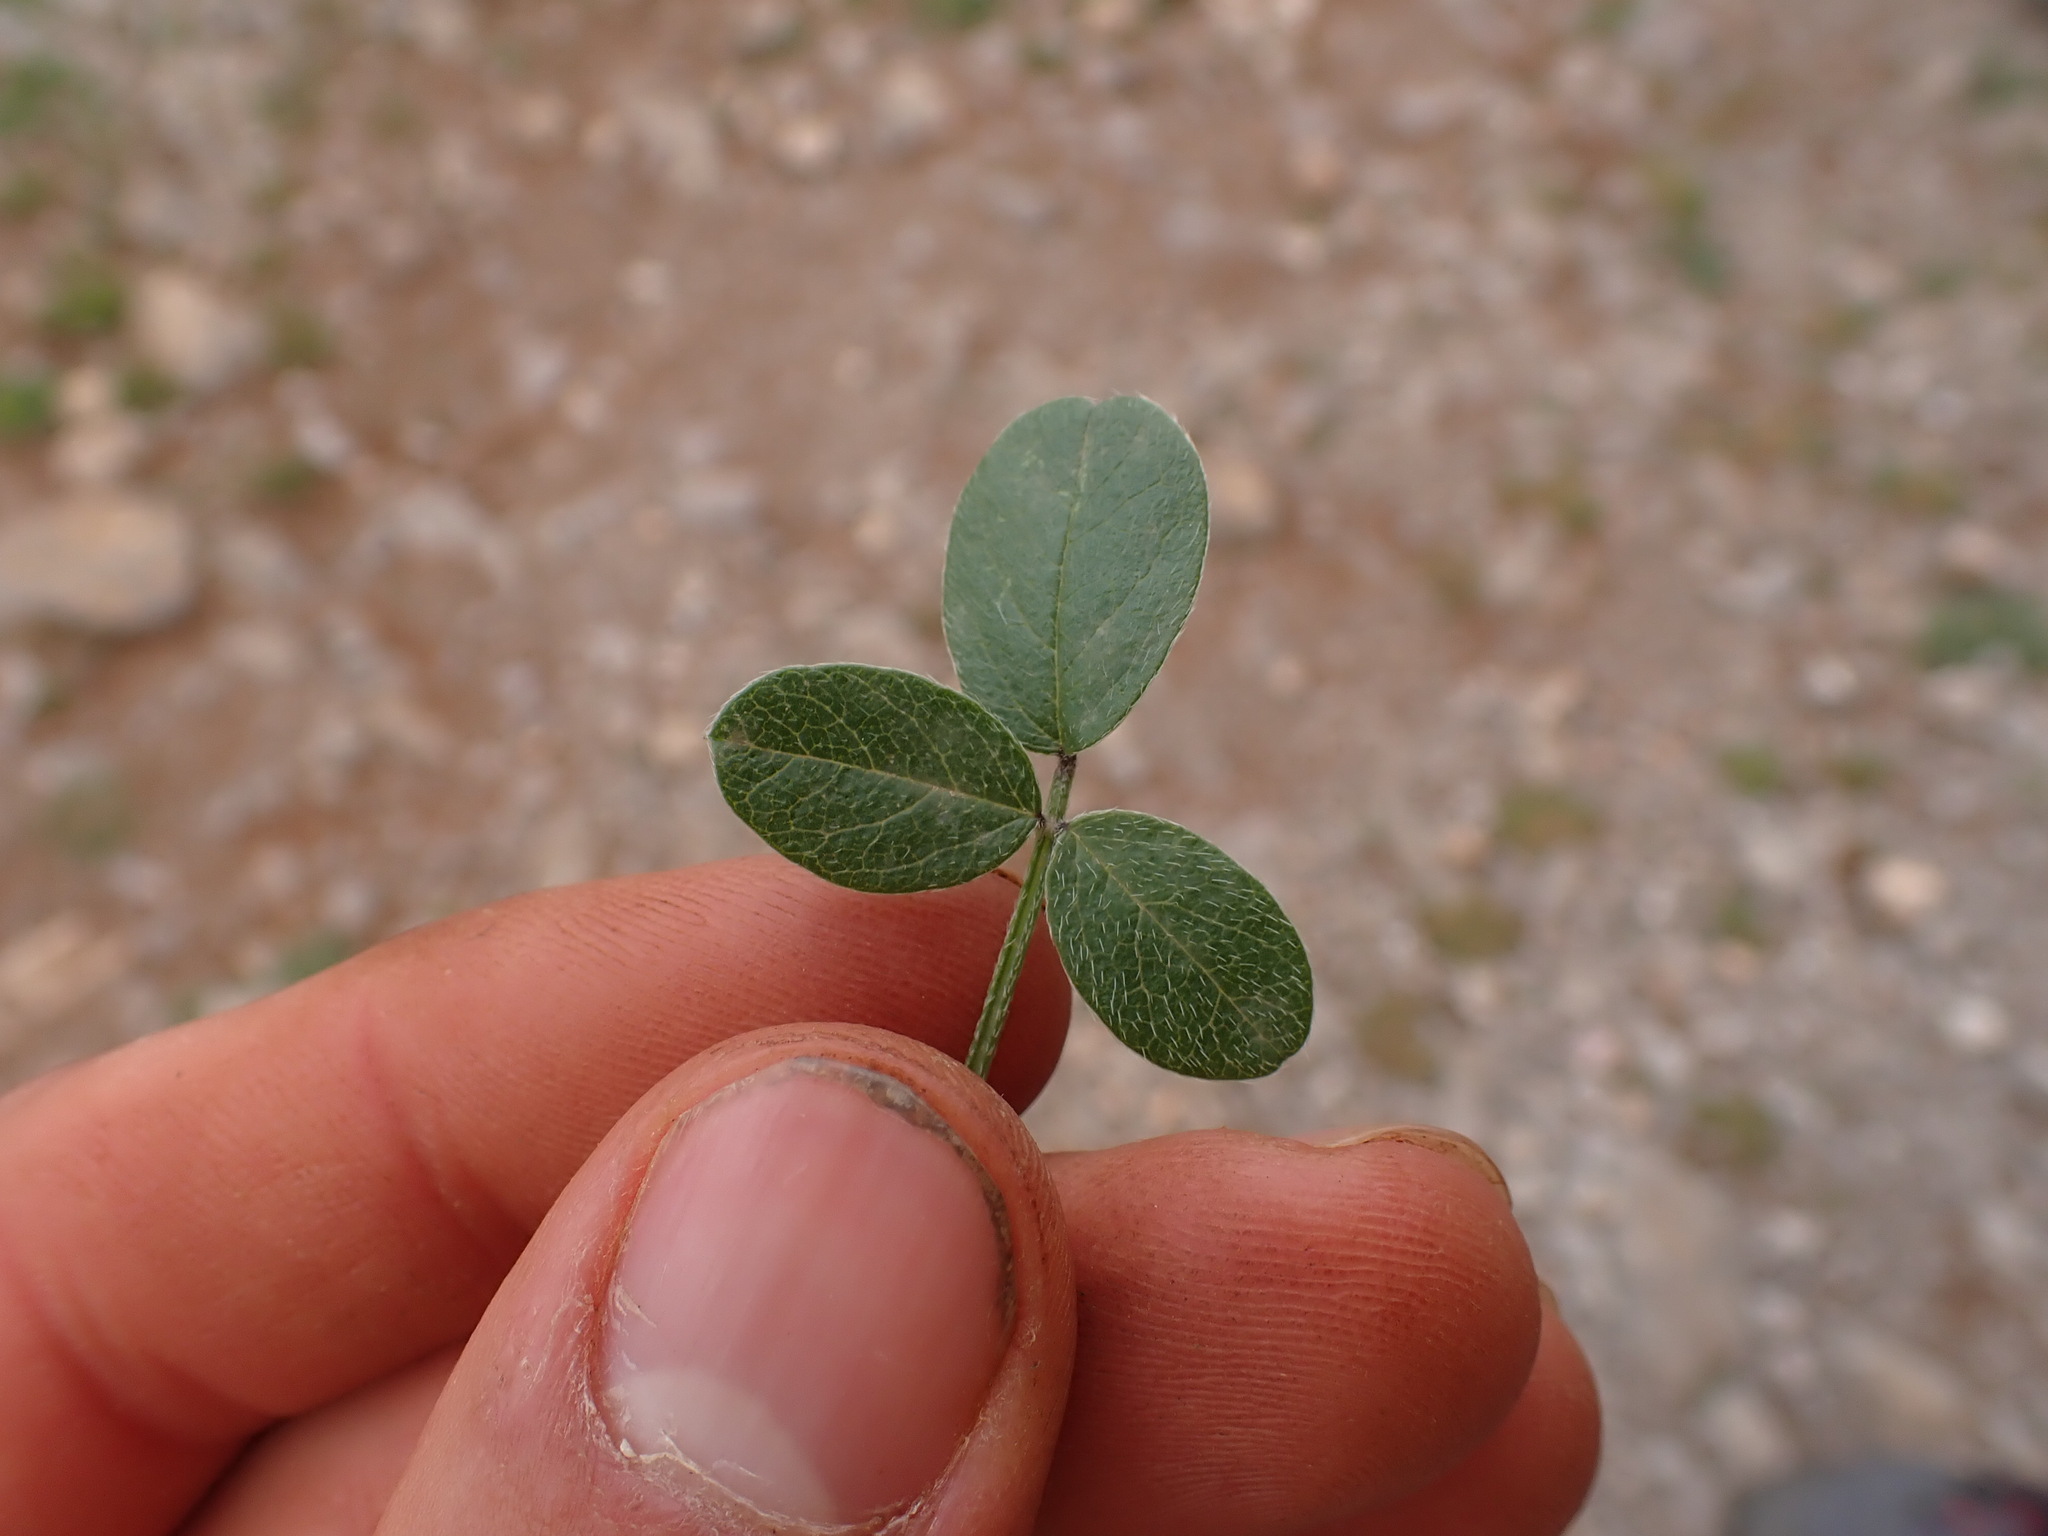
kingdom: Plantae
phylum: Tracheophyta
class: Magnoliopsida
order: Fabales
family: Fabaceae
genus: Bituminaria
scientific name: Bituminaria bituminosa
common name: Arabian pea
